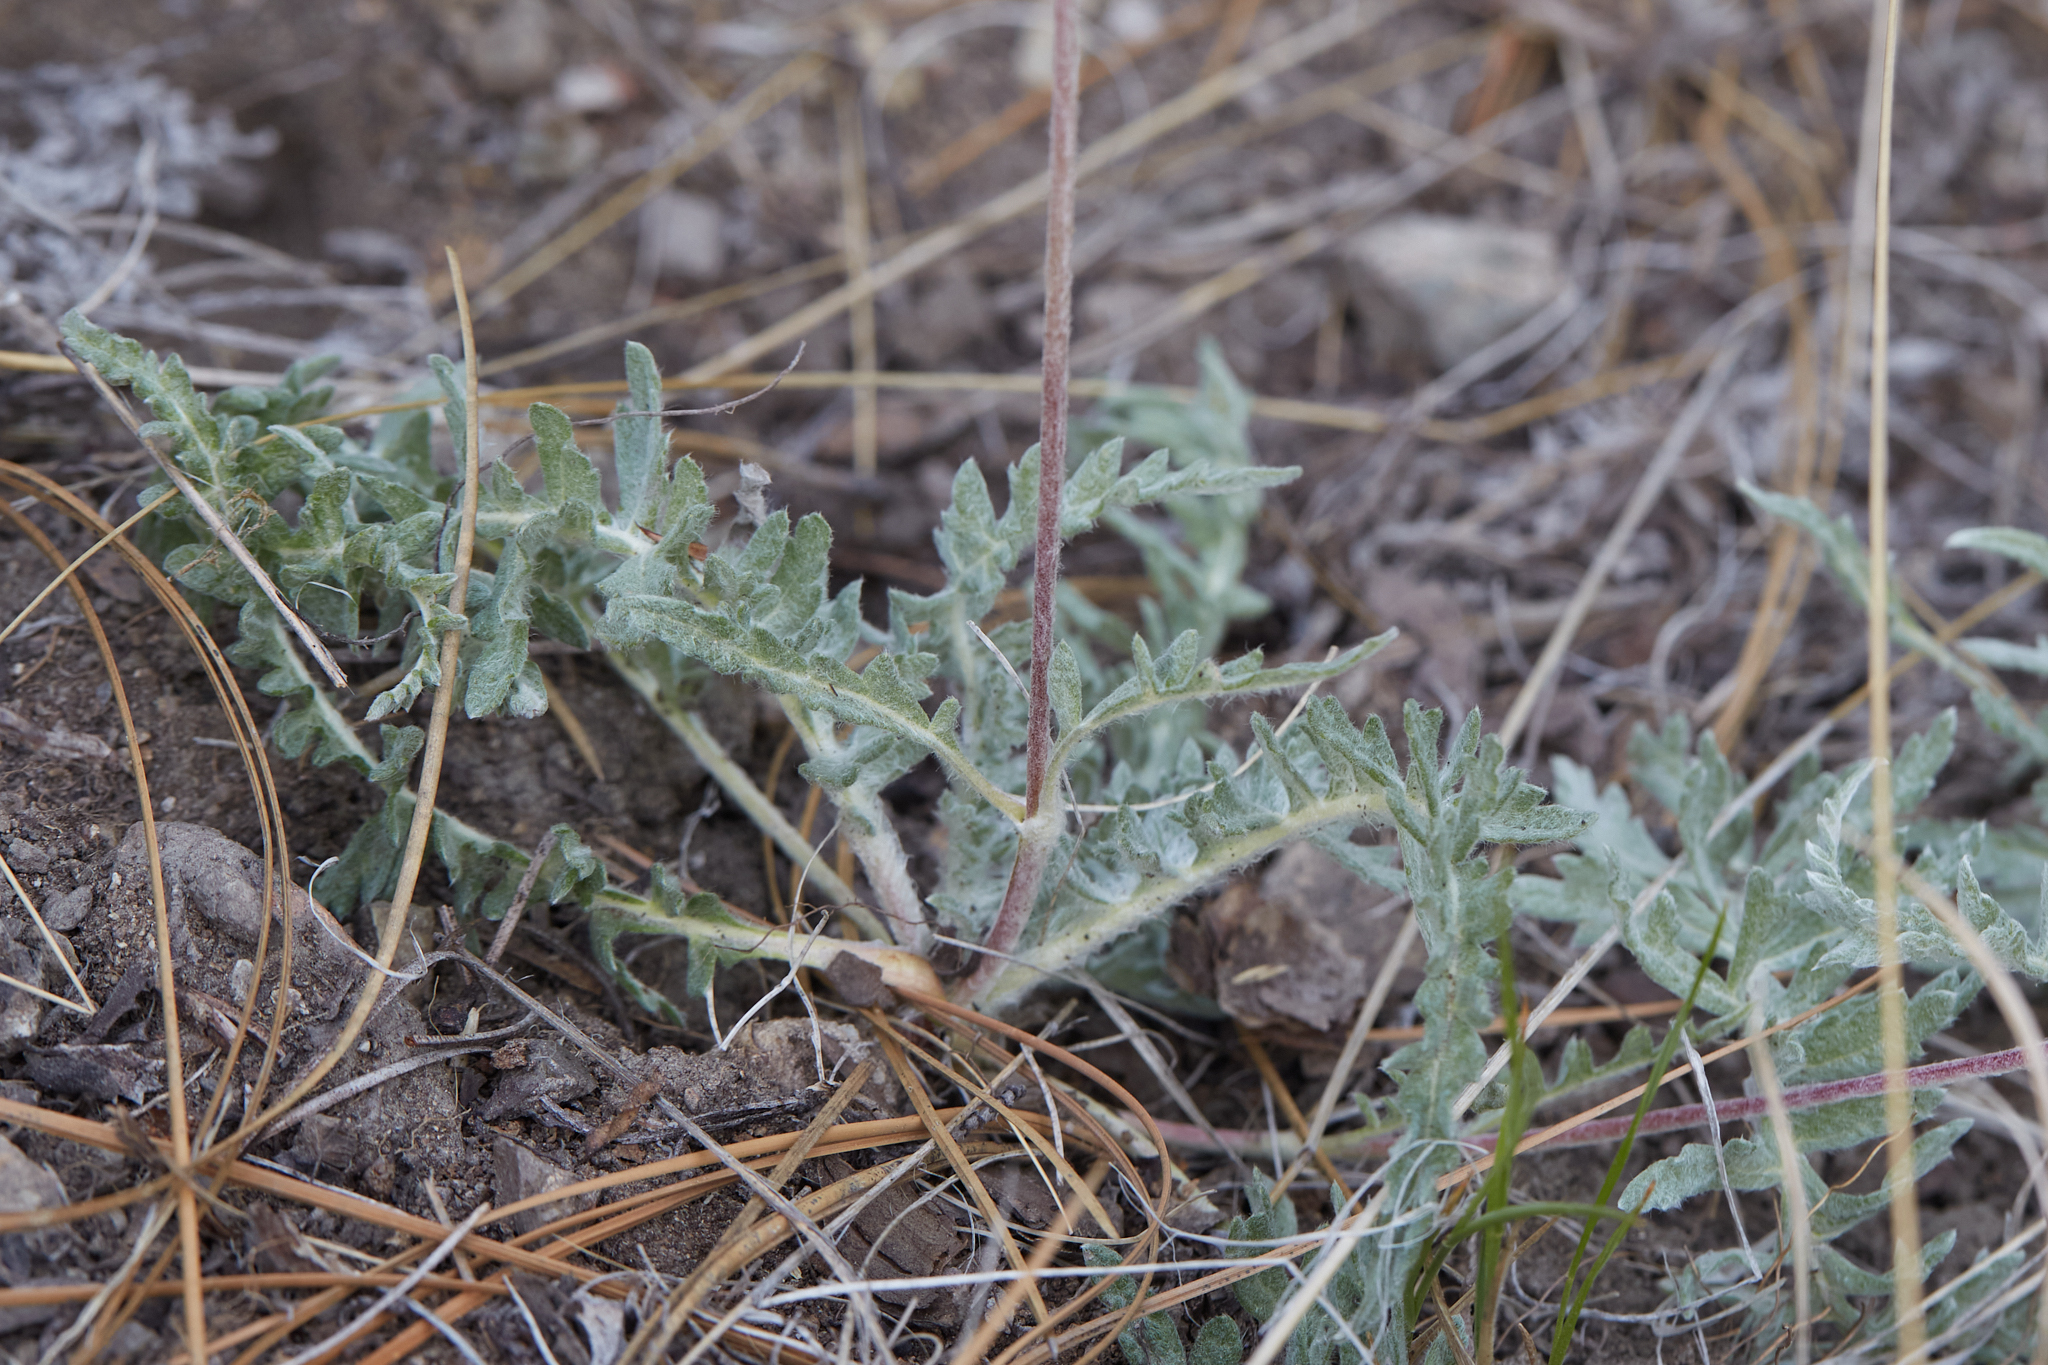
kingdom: Plantae
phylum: Tracheophyta
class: Magnoliopsida
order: Asterales
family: Asteraceae
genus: Balsamorhiza
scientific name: Balsamorhiza lanata
